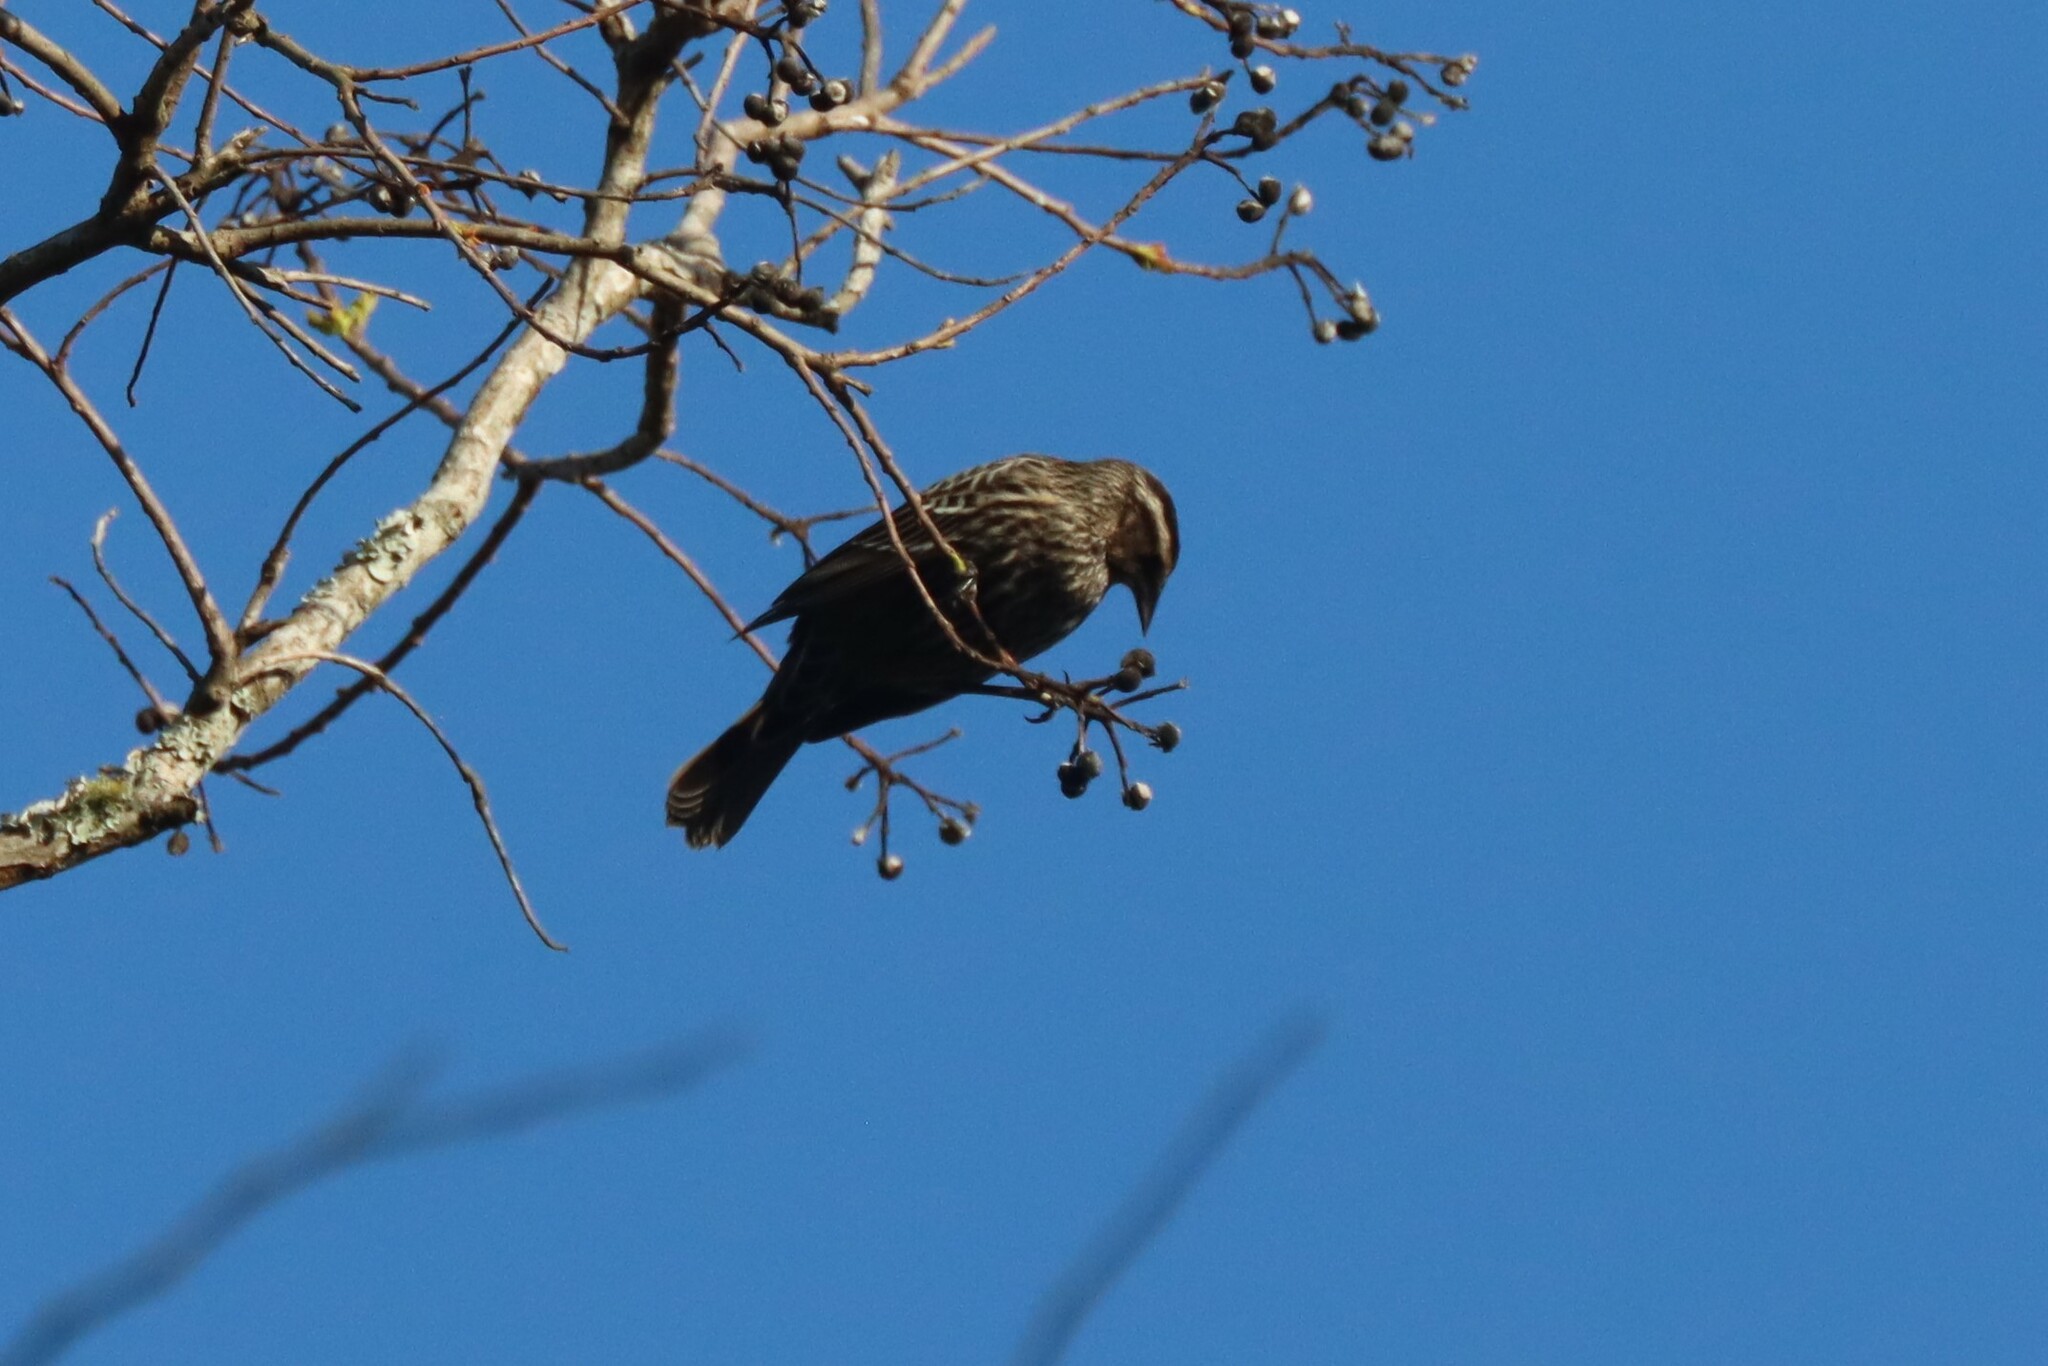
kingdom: Animalia
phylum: Chordata
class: Aves
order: Passeriformes
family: Icteridae
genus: Agelaius
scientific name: Agelaius phoeniceus
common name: Red-winged blackbird
